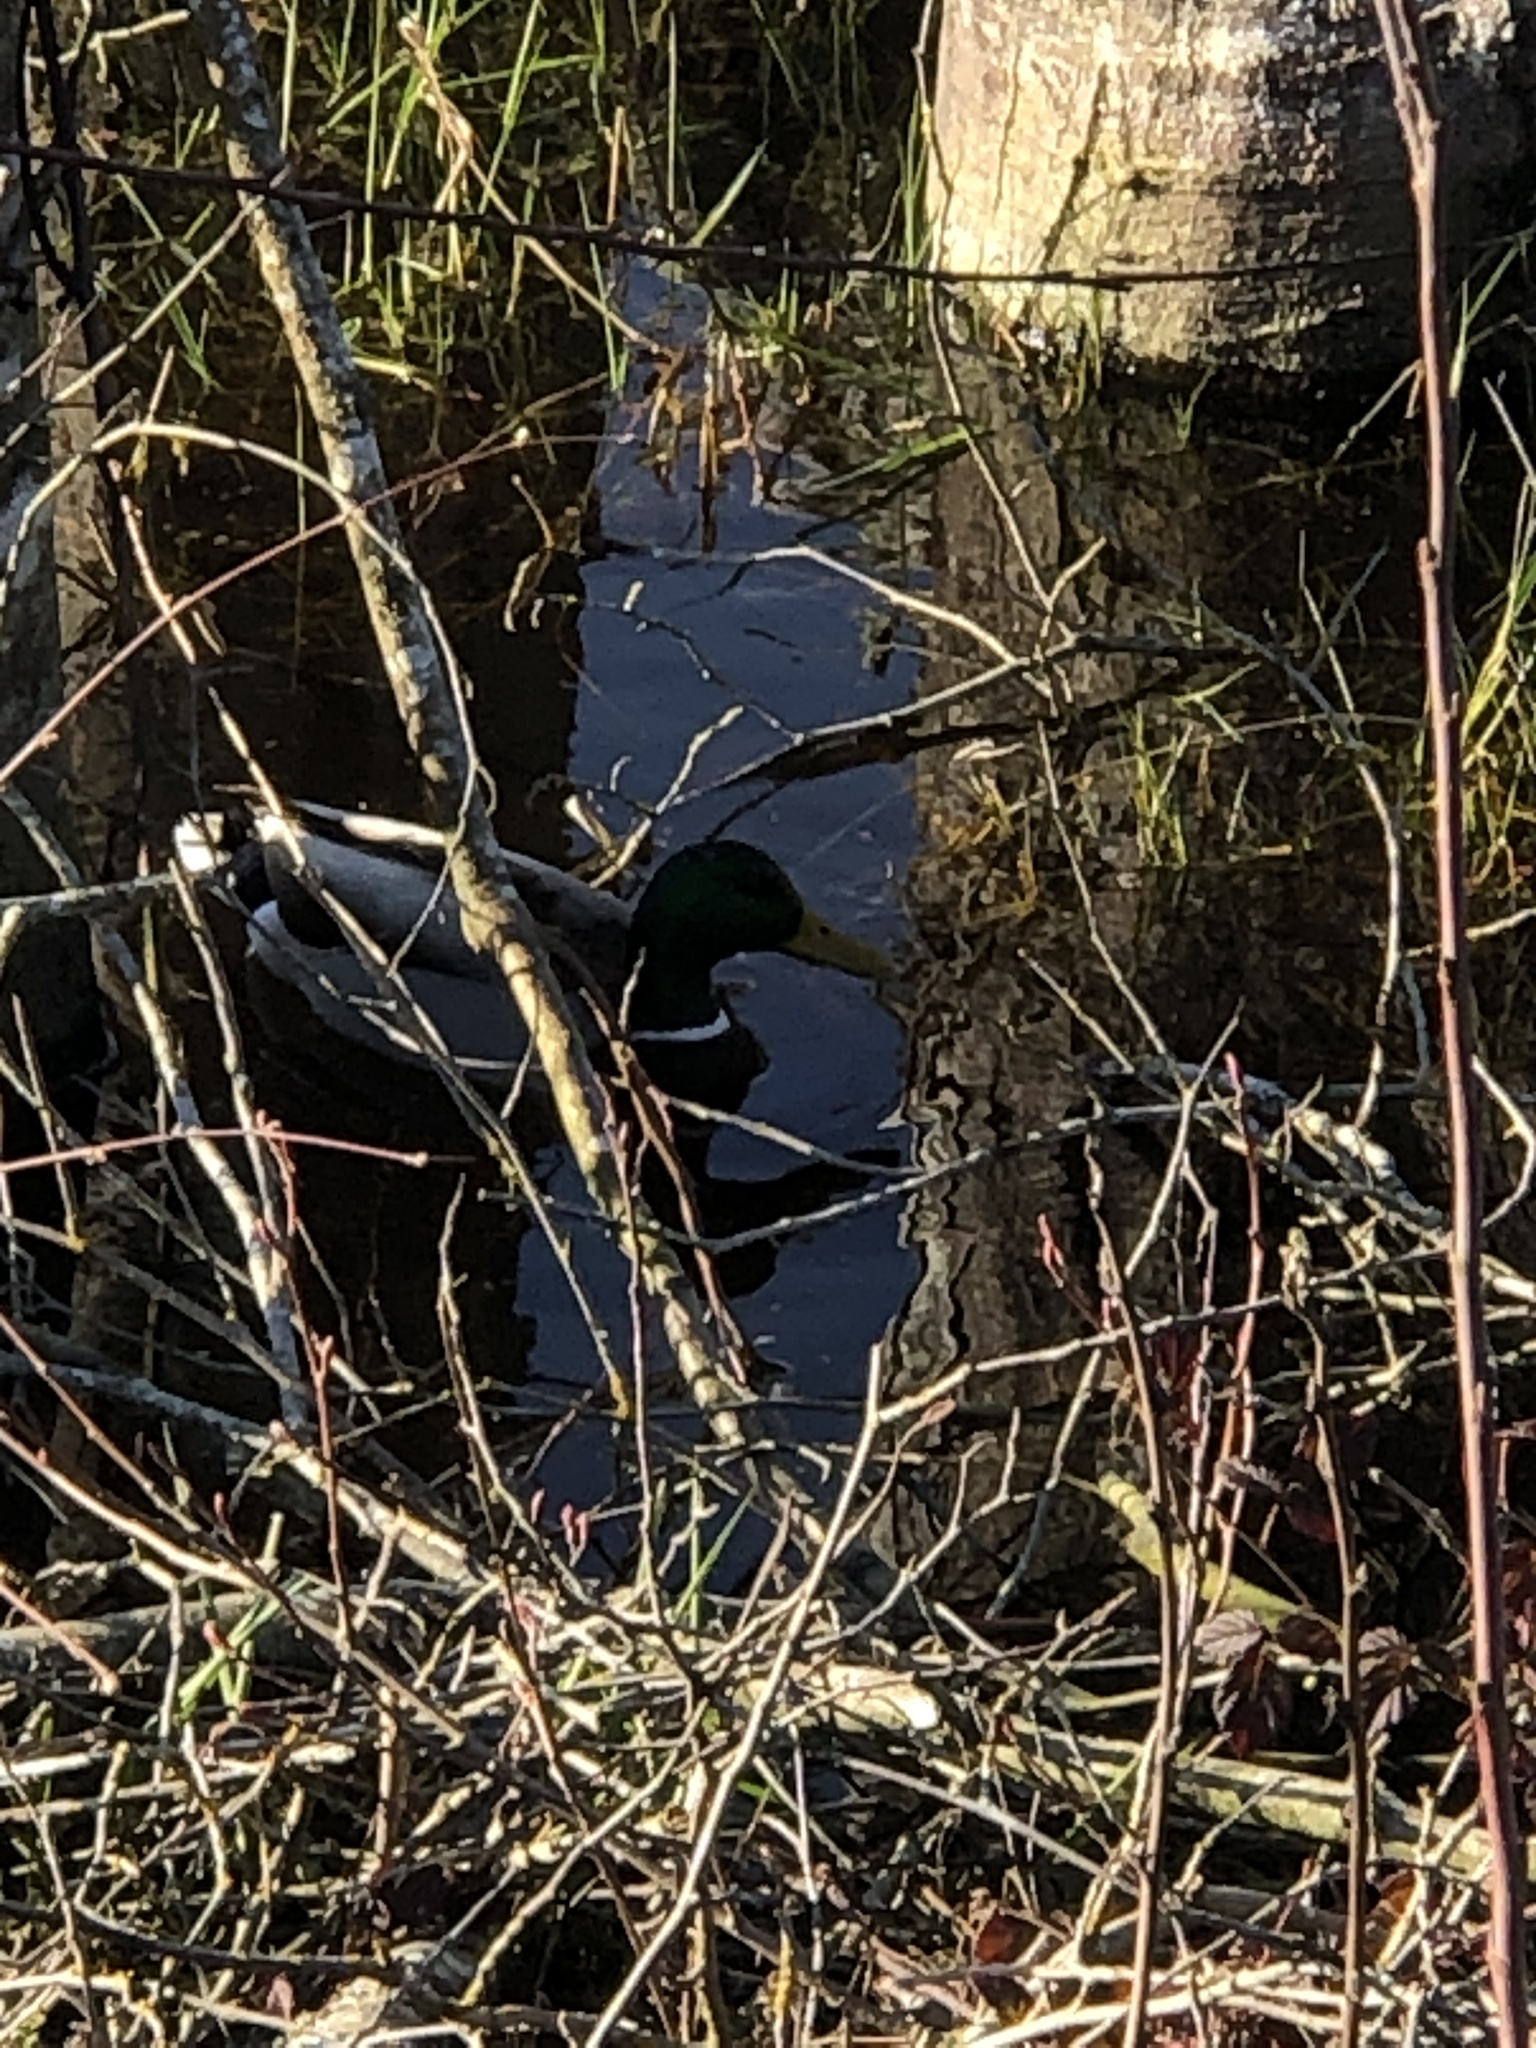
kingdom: Animalia
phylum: Chordata
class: Aves
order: Anseriformes
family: Anatidae
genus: Anas
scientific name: Anas platyrhynchos
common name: Mallard
